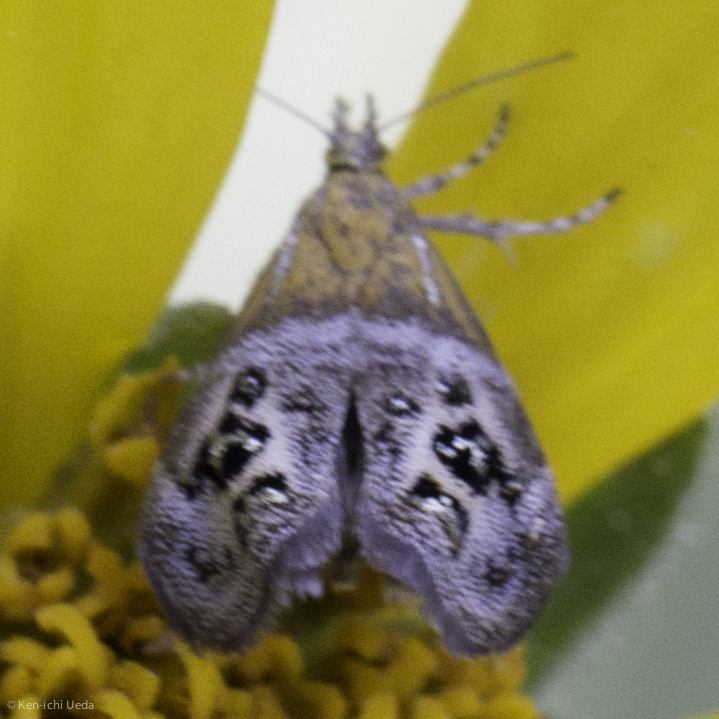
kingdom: Animalia
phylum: Arthropoda
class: Insecta
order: Lepidoptera
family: Choreutidae
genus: Tebenna
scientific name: Tebenna gemmalis
